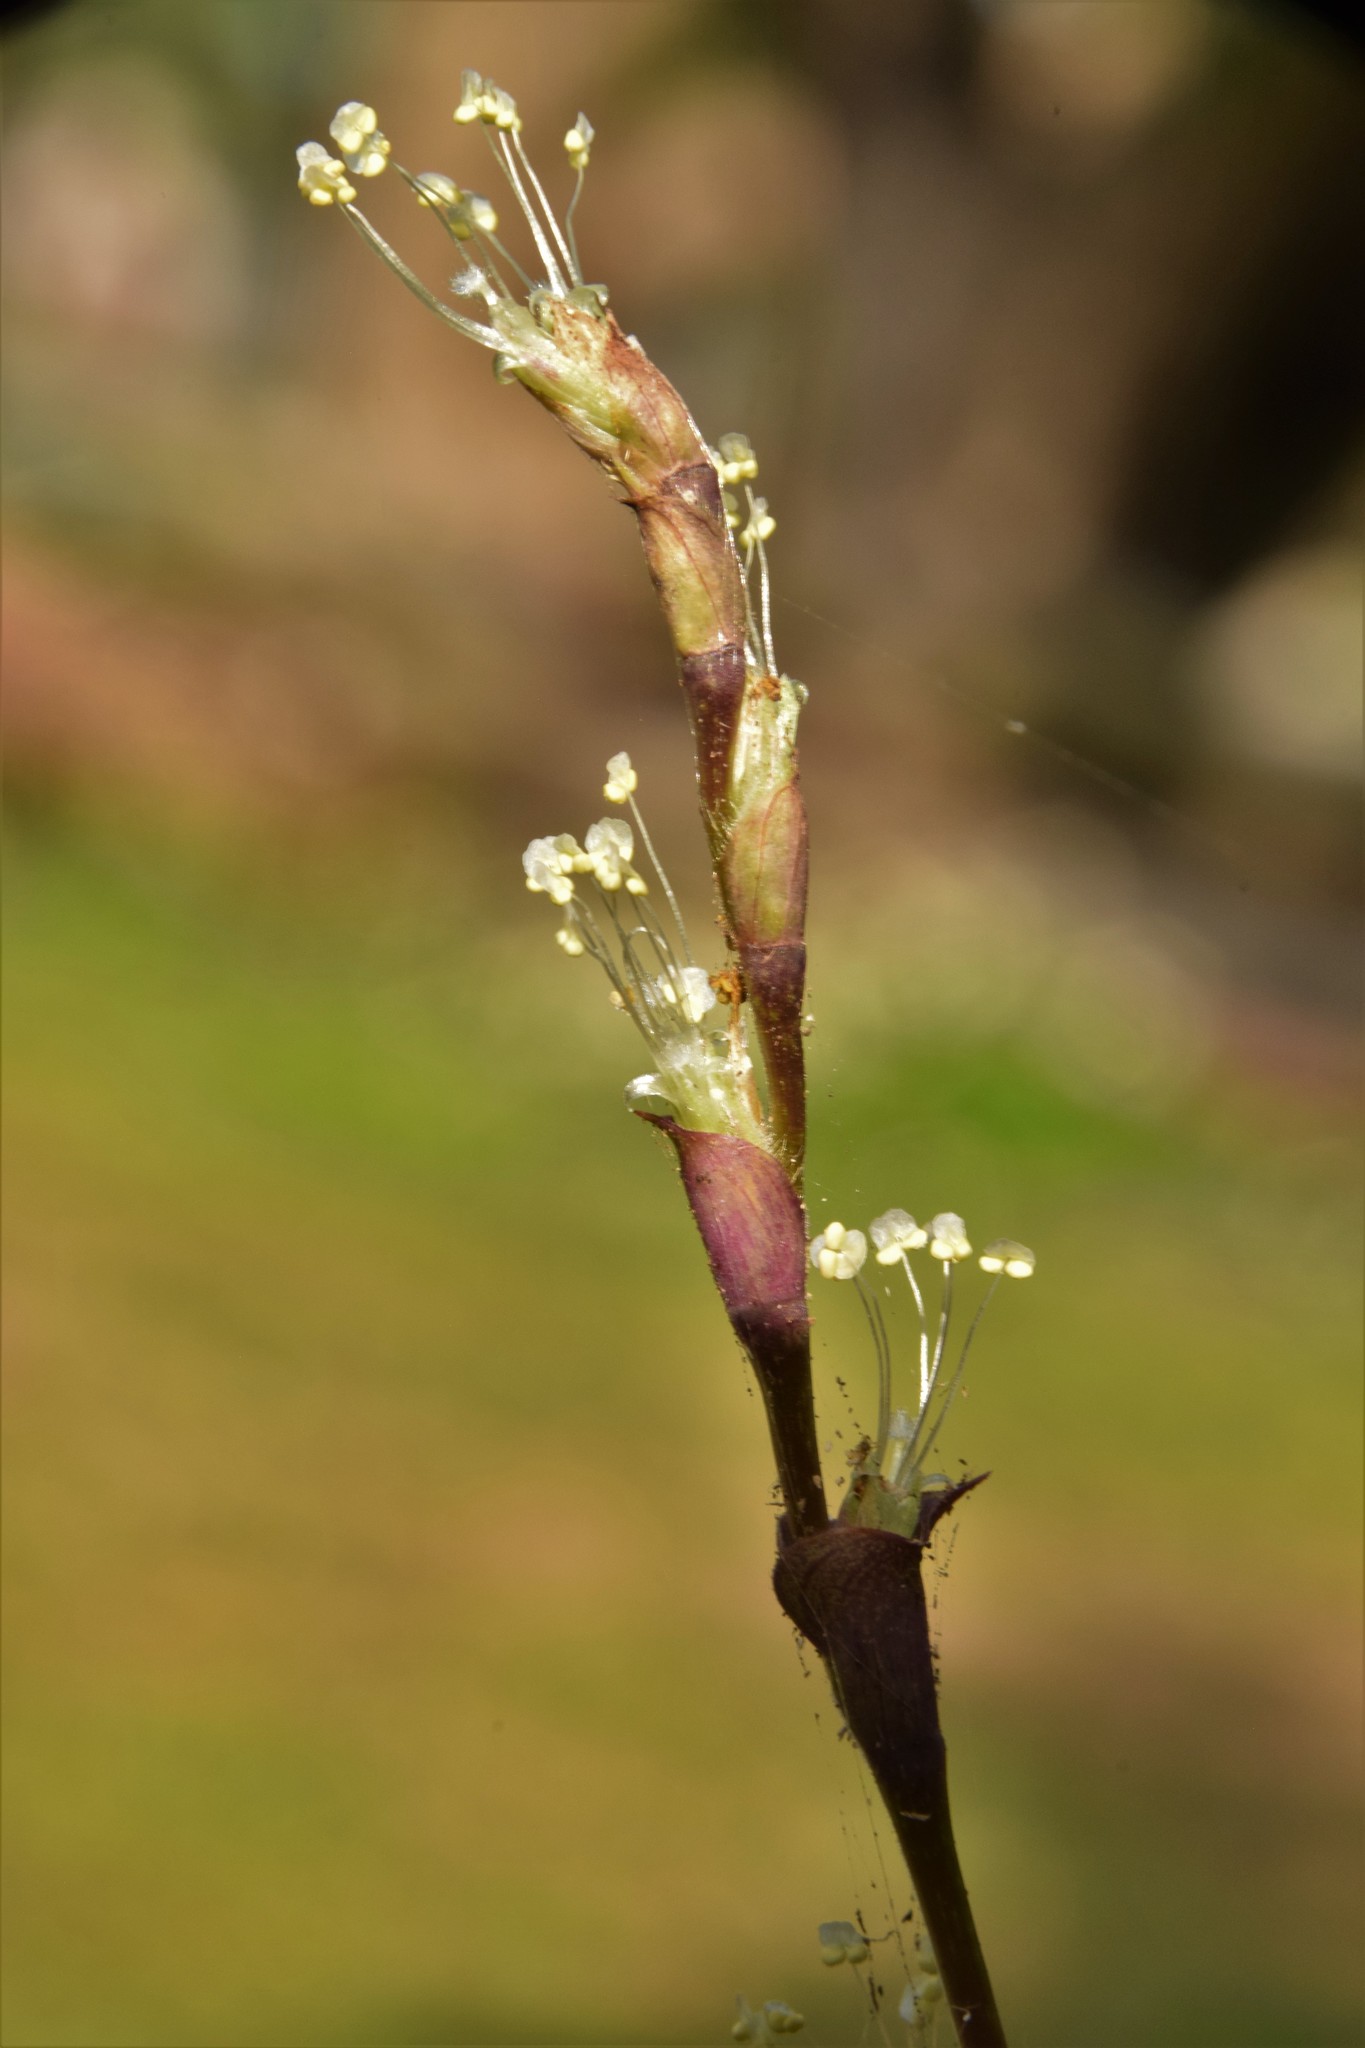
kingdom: Plantae
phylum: Tracheophyta
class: Liliopsida
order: Commelinales
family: Commelinaceae
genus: Callisia
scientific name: Callisia repens
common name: Creeping inchplant
